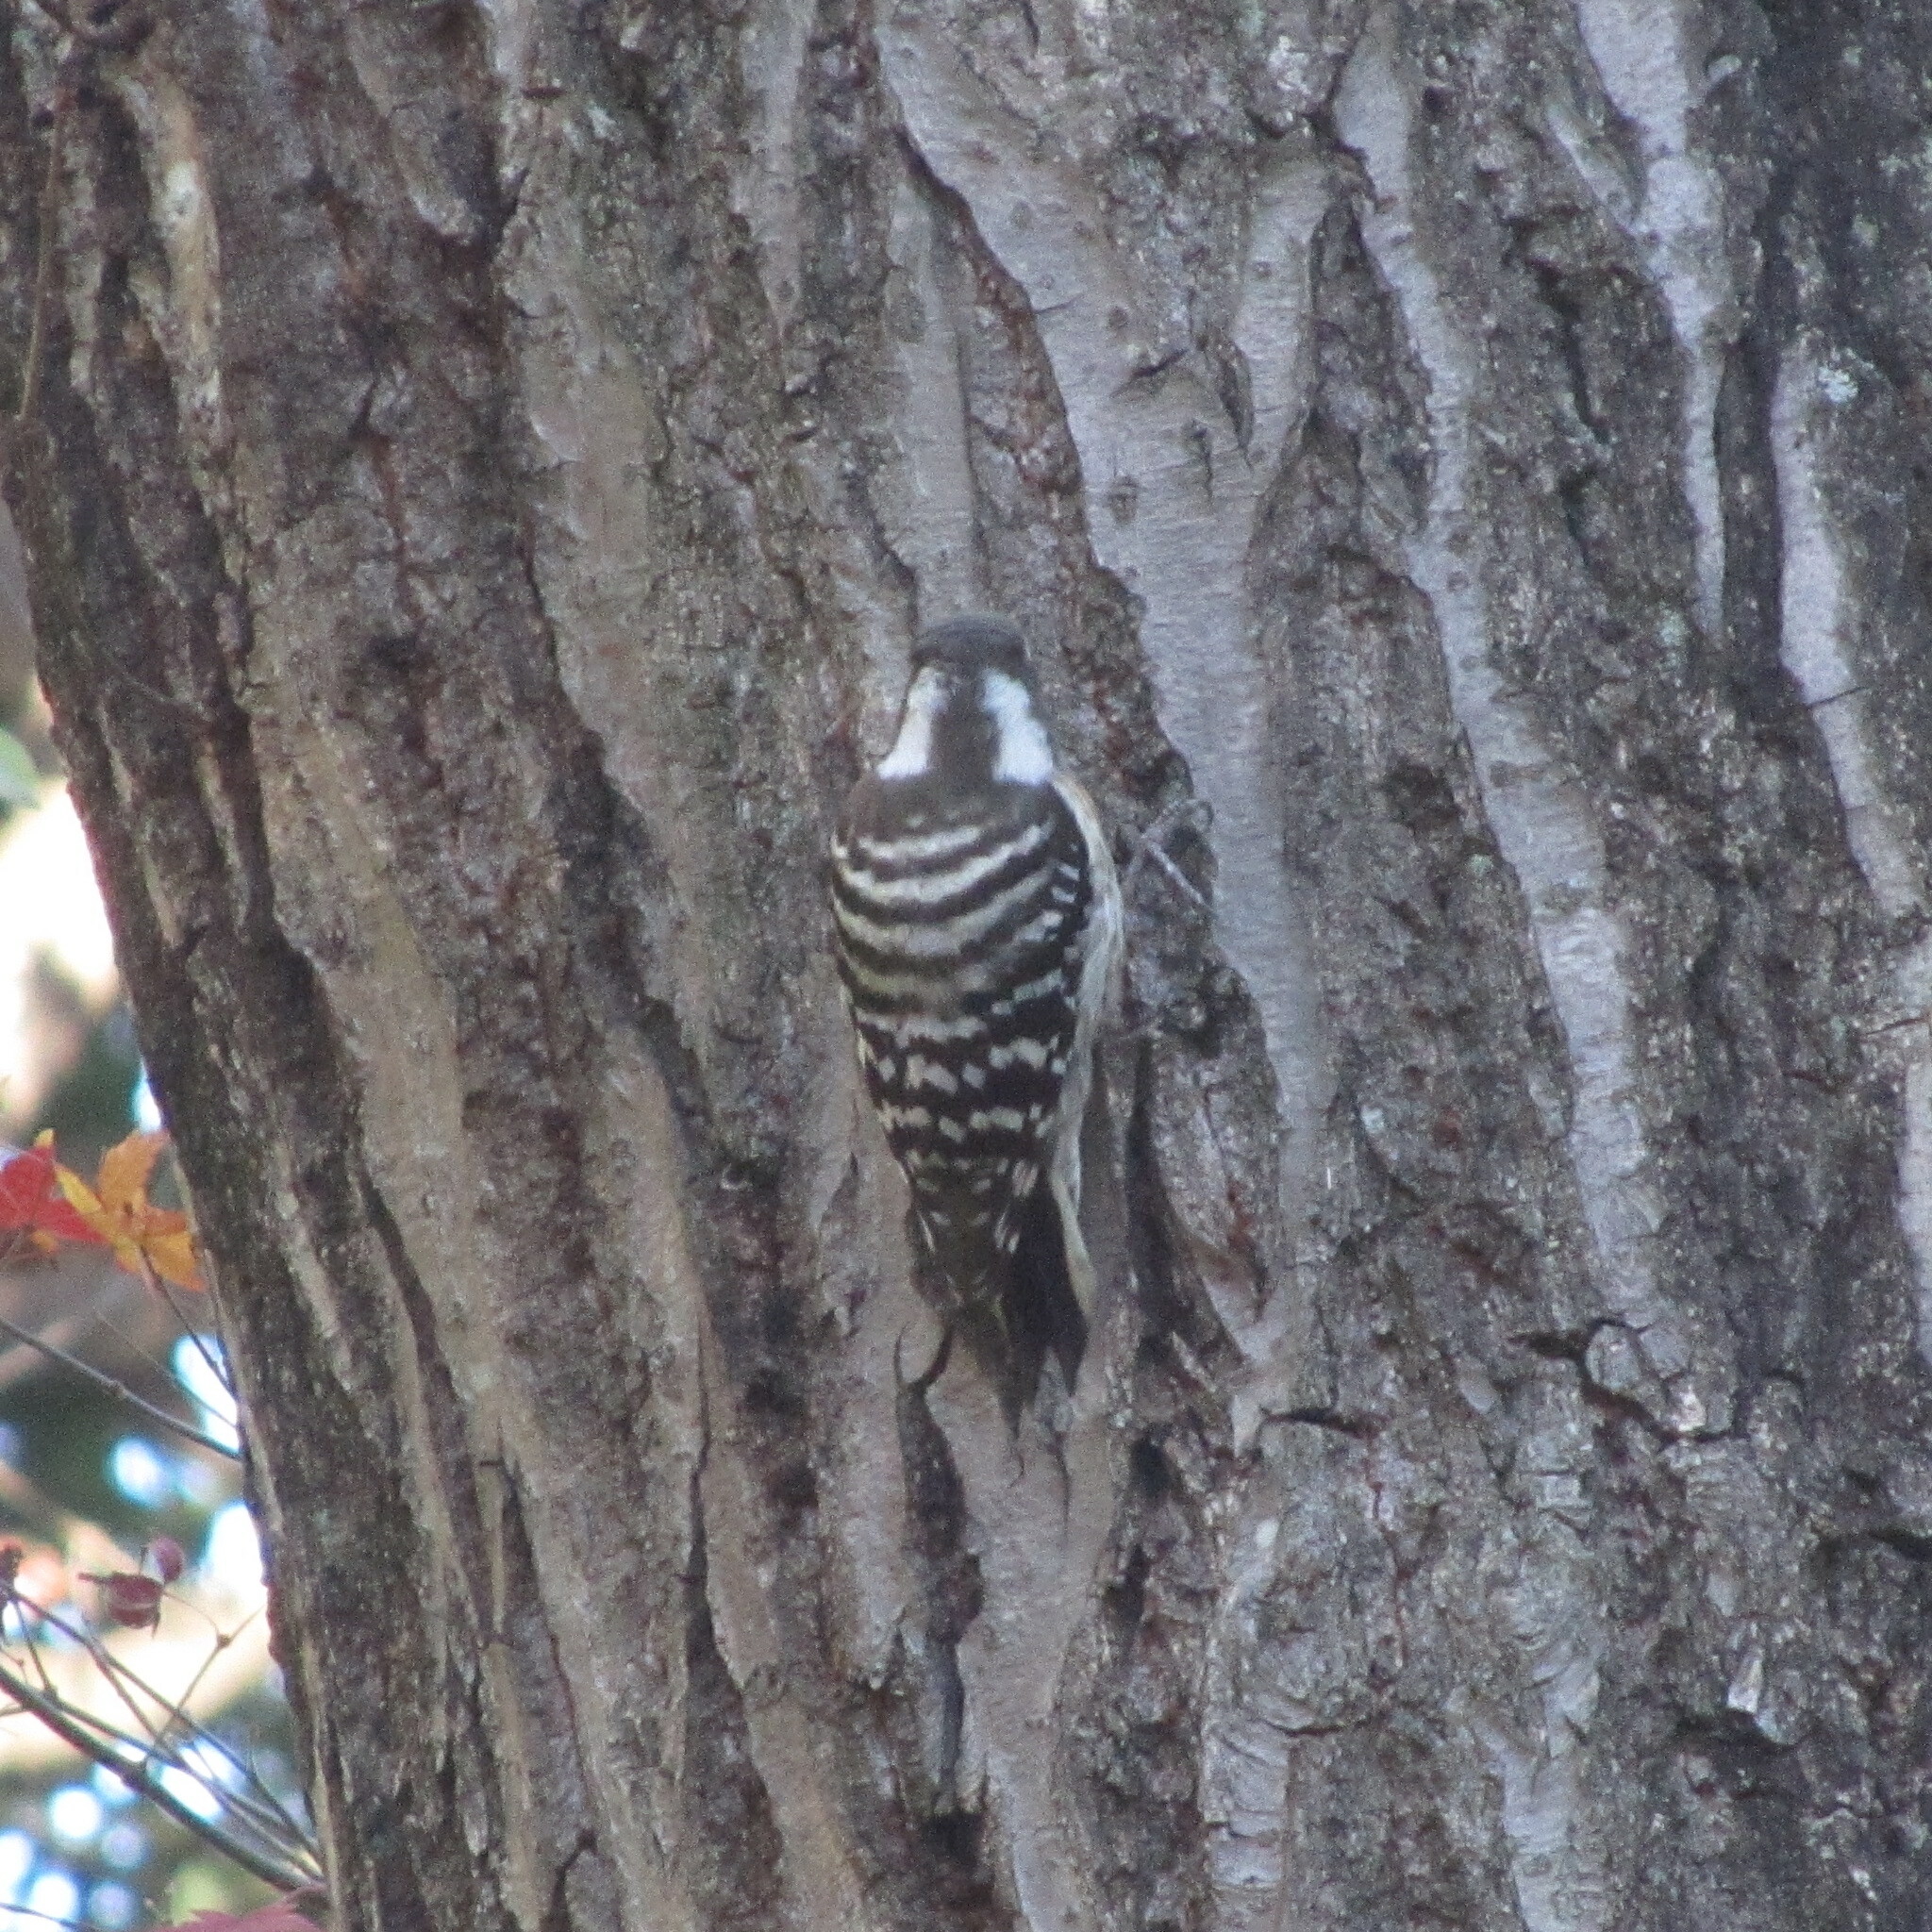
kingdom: Animalia
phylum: Chordata
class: Aves
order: Piciformes
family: Picidae
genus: Yungipicus
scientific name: Yungipicus kizuki
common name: Japanese pygmy woodpecker
